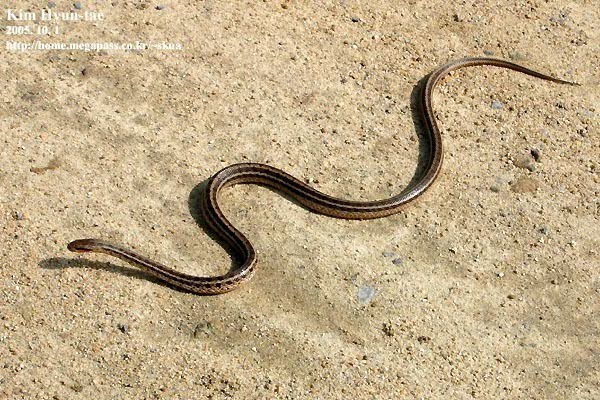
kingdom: Animalia
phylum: Chordata
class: Squamata
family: Colubridae
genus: Elaphe
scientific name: Elaphe dione
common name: Dione ratsnake
